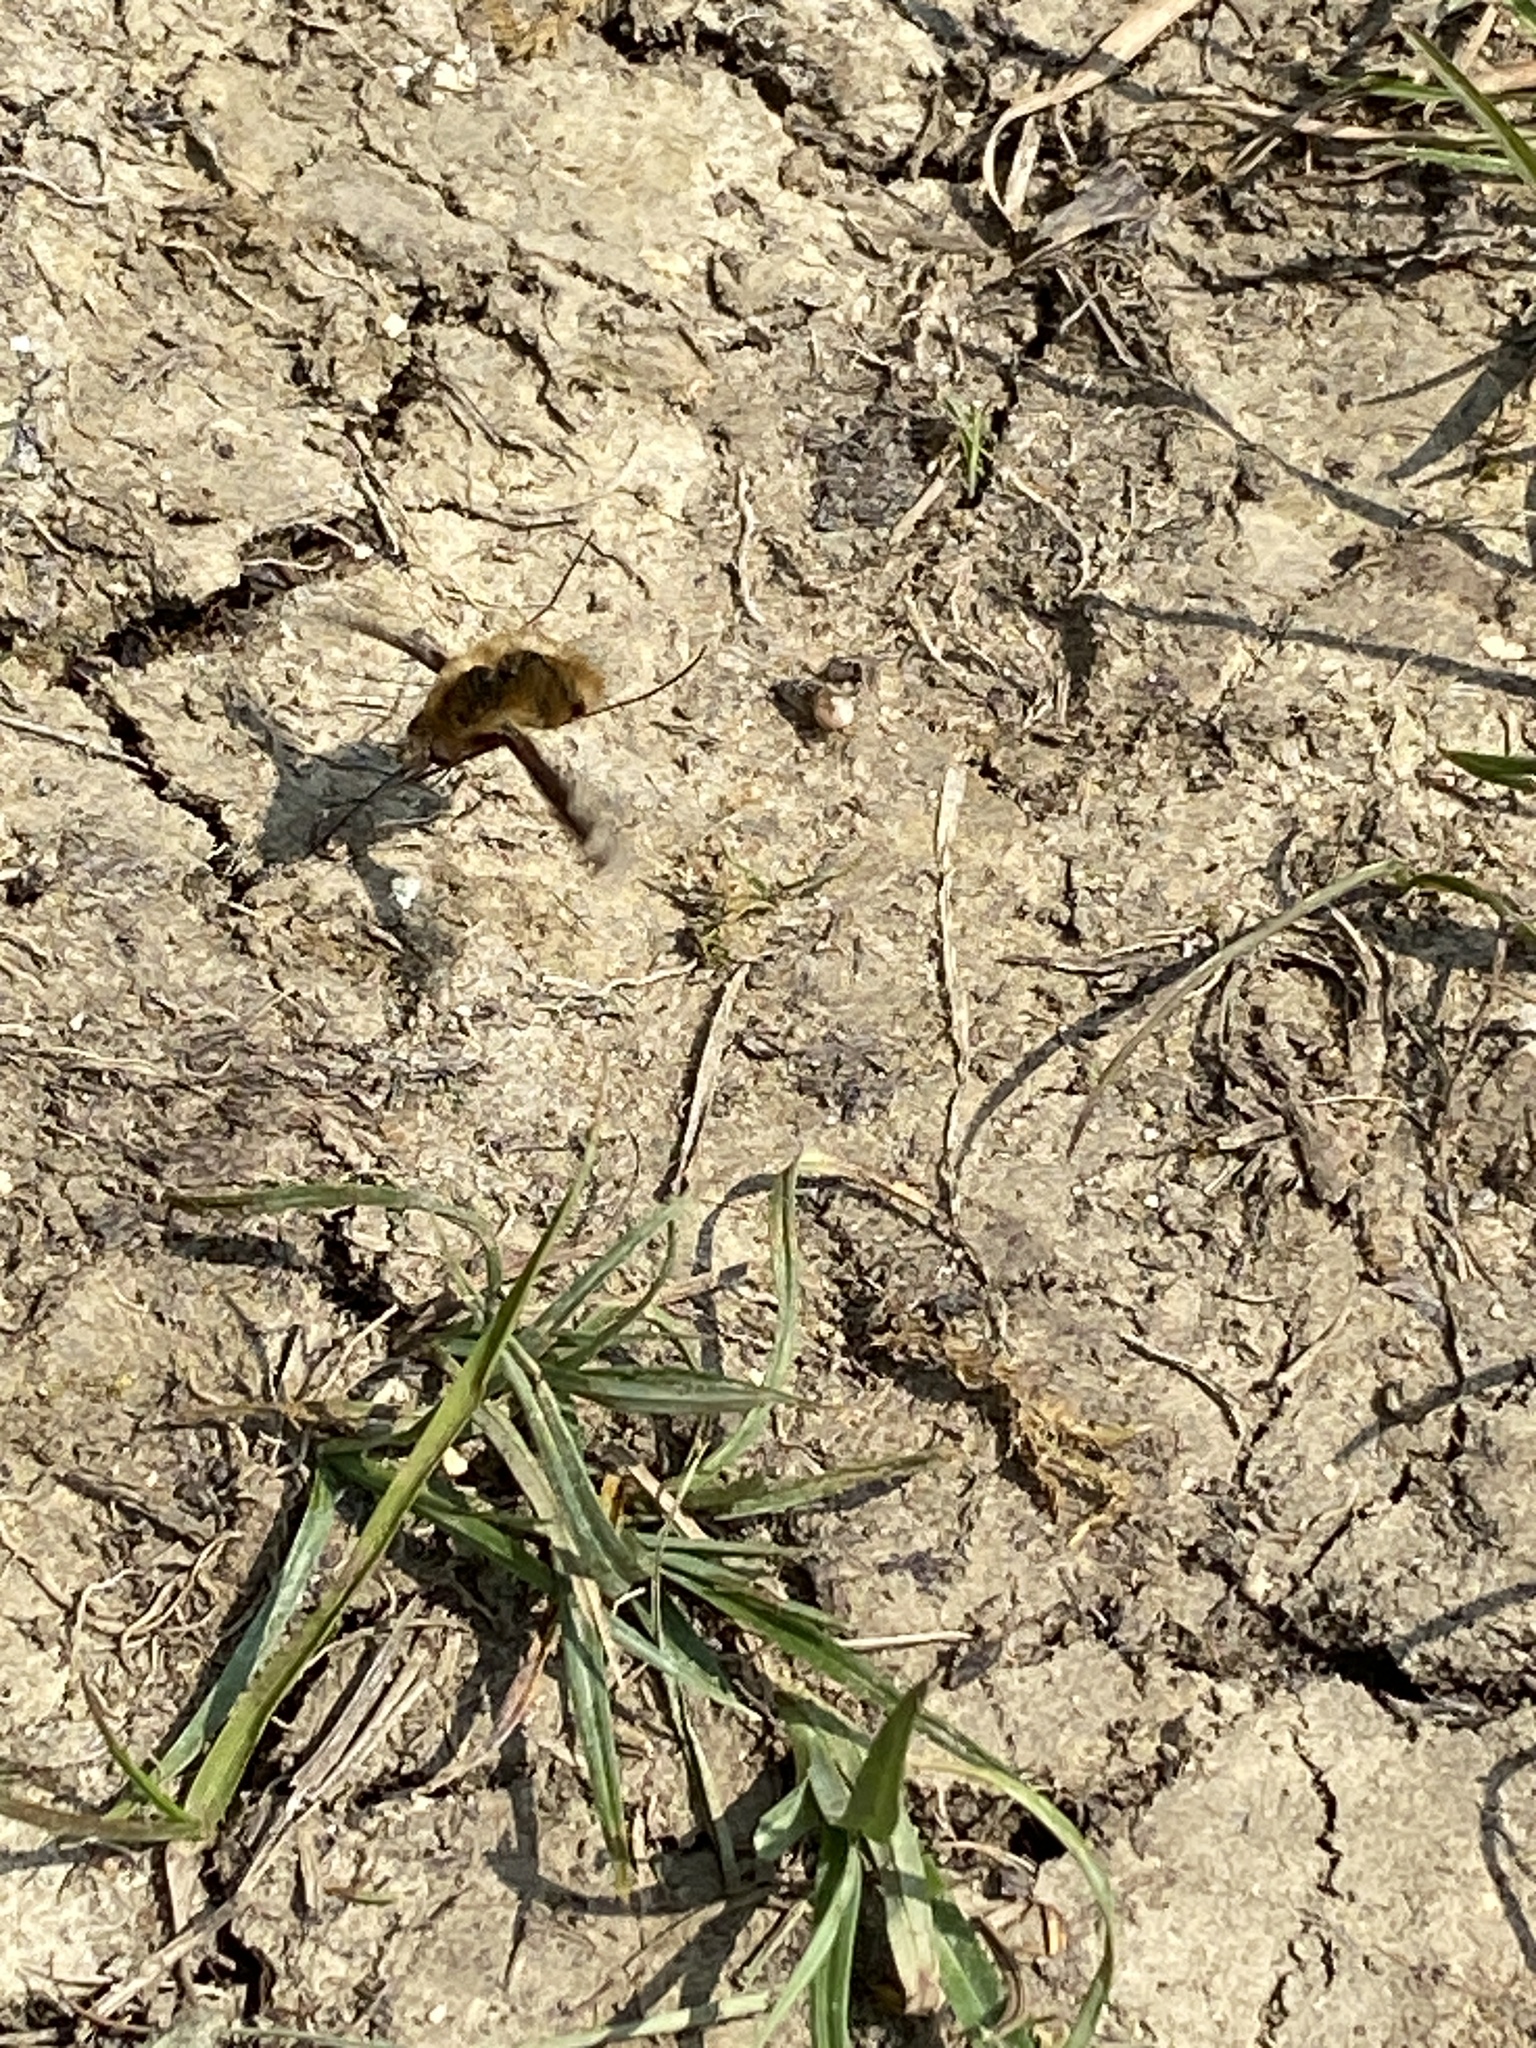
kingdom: Animalia
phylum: Arthropoda
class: Insecta
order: Diptera
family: Bombyliidae
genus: Bombylius
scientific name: Bombylius major
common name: Bee fly
